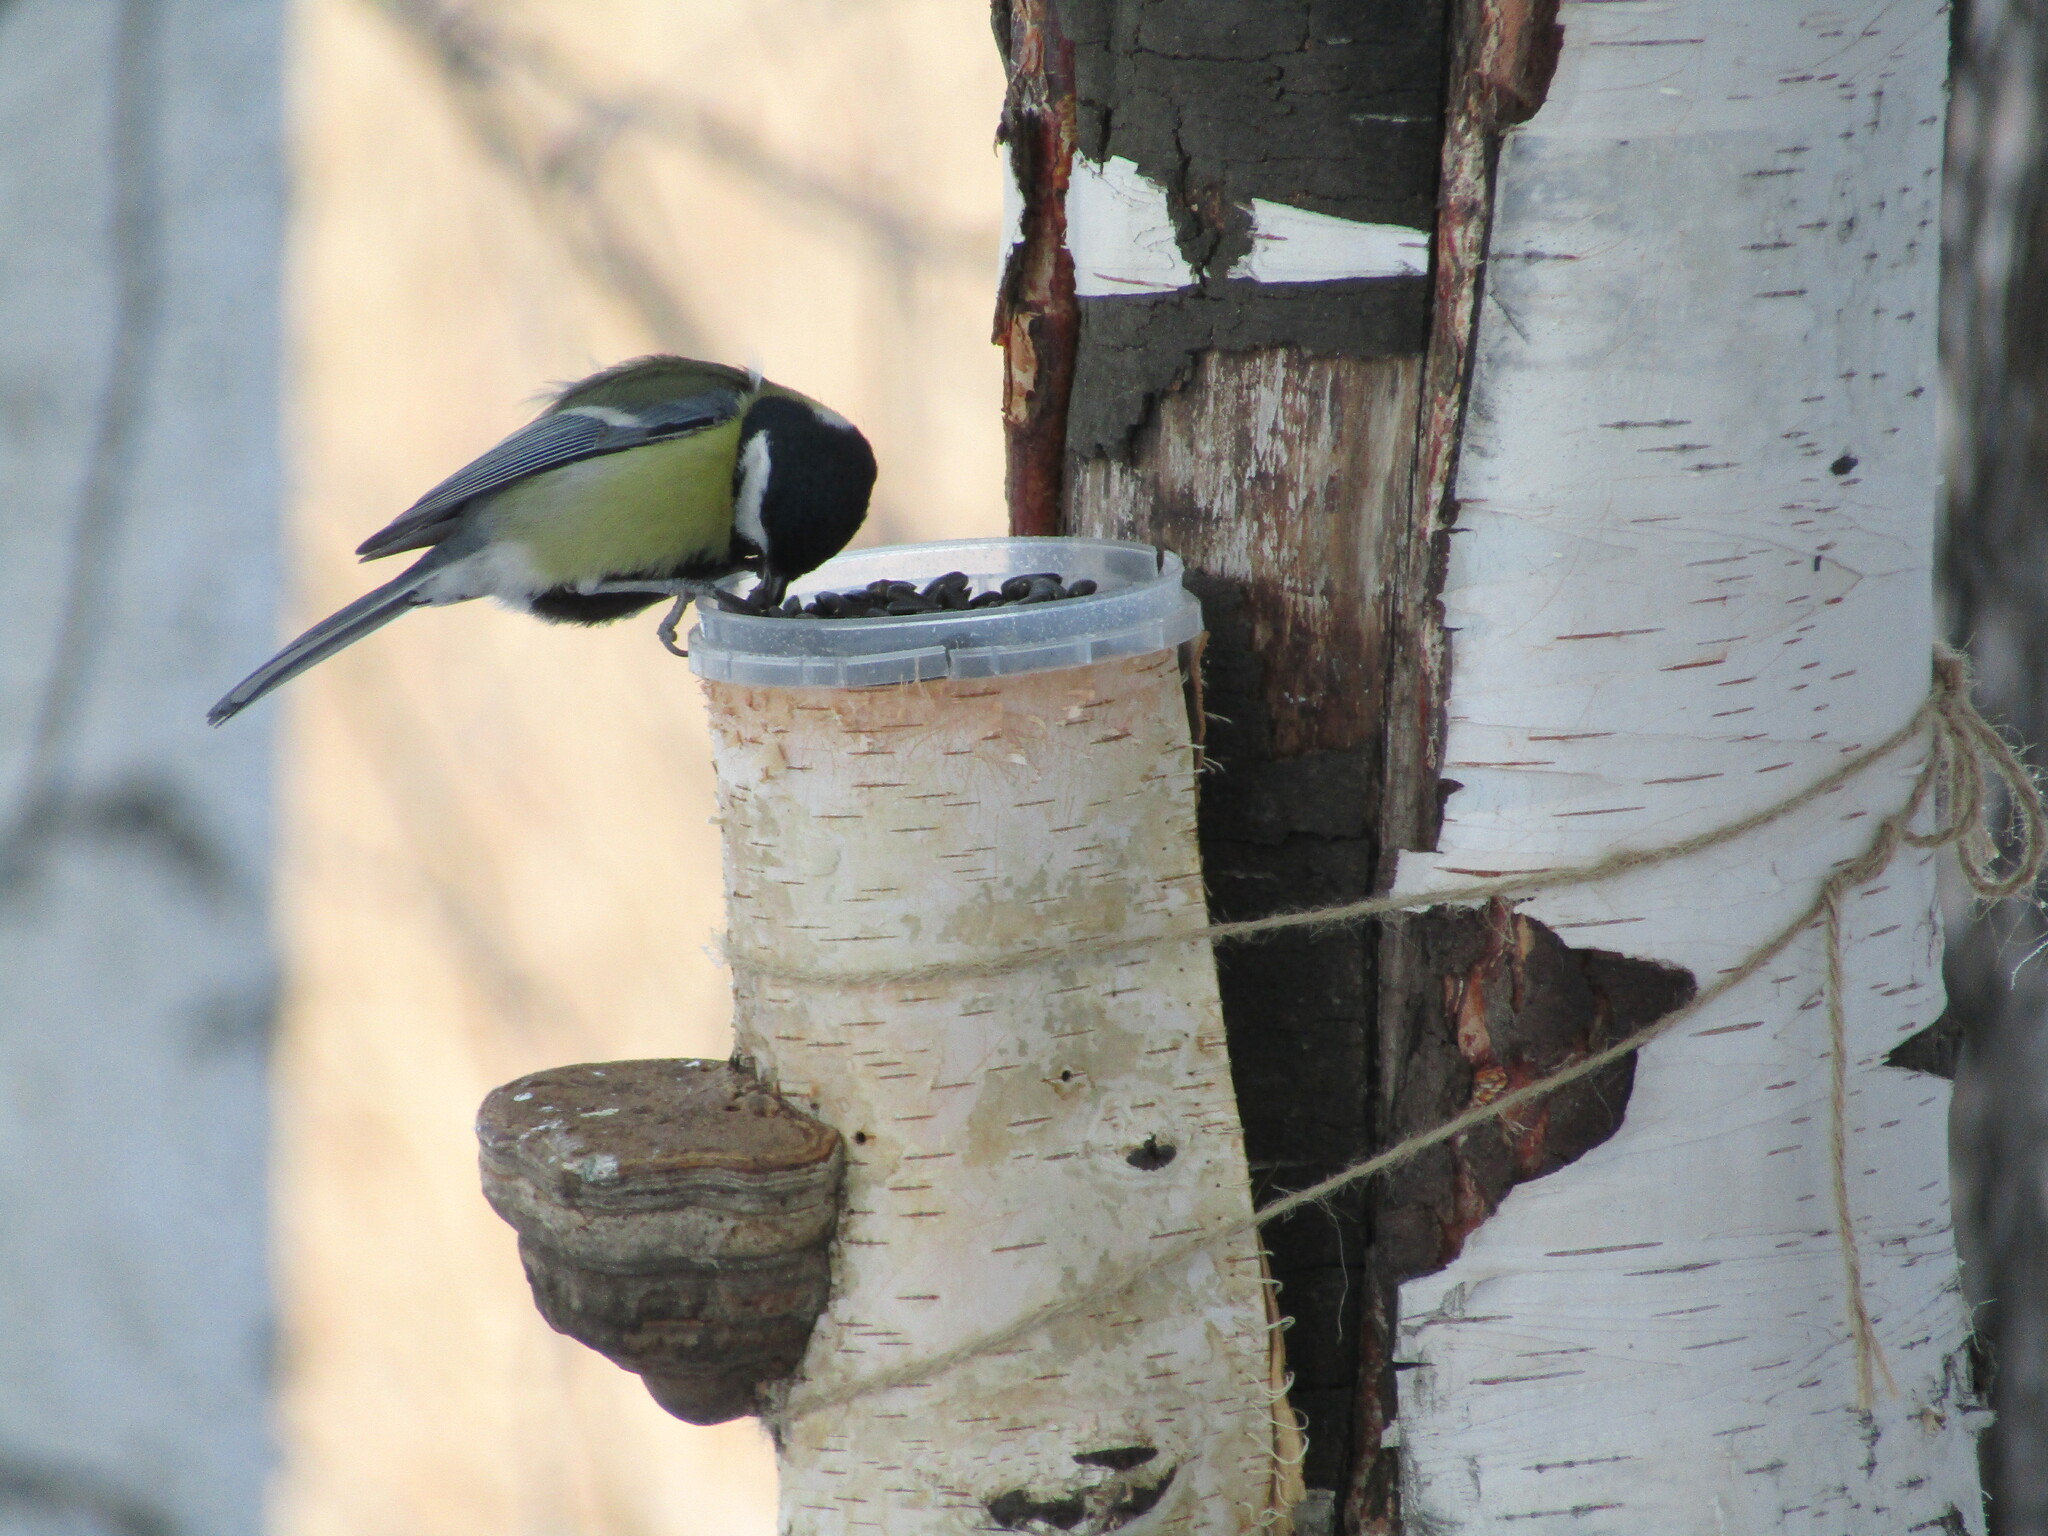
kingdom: Animalia
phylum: Chordata
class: Aves
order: Passeriformes
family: Paridae
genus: Parus
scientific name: Parus major
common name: Great tit
